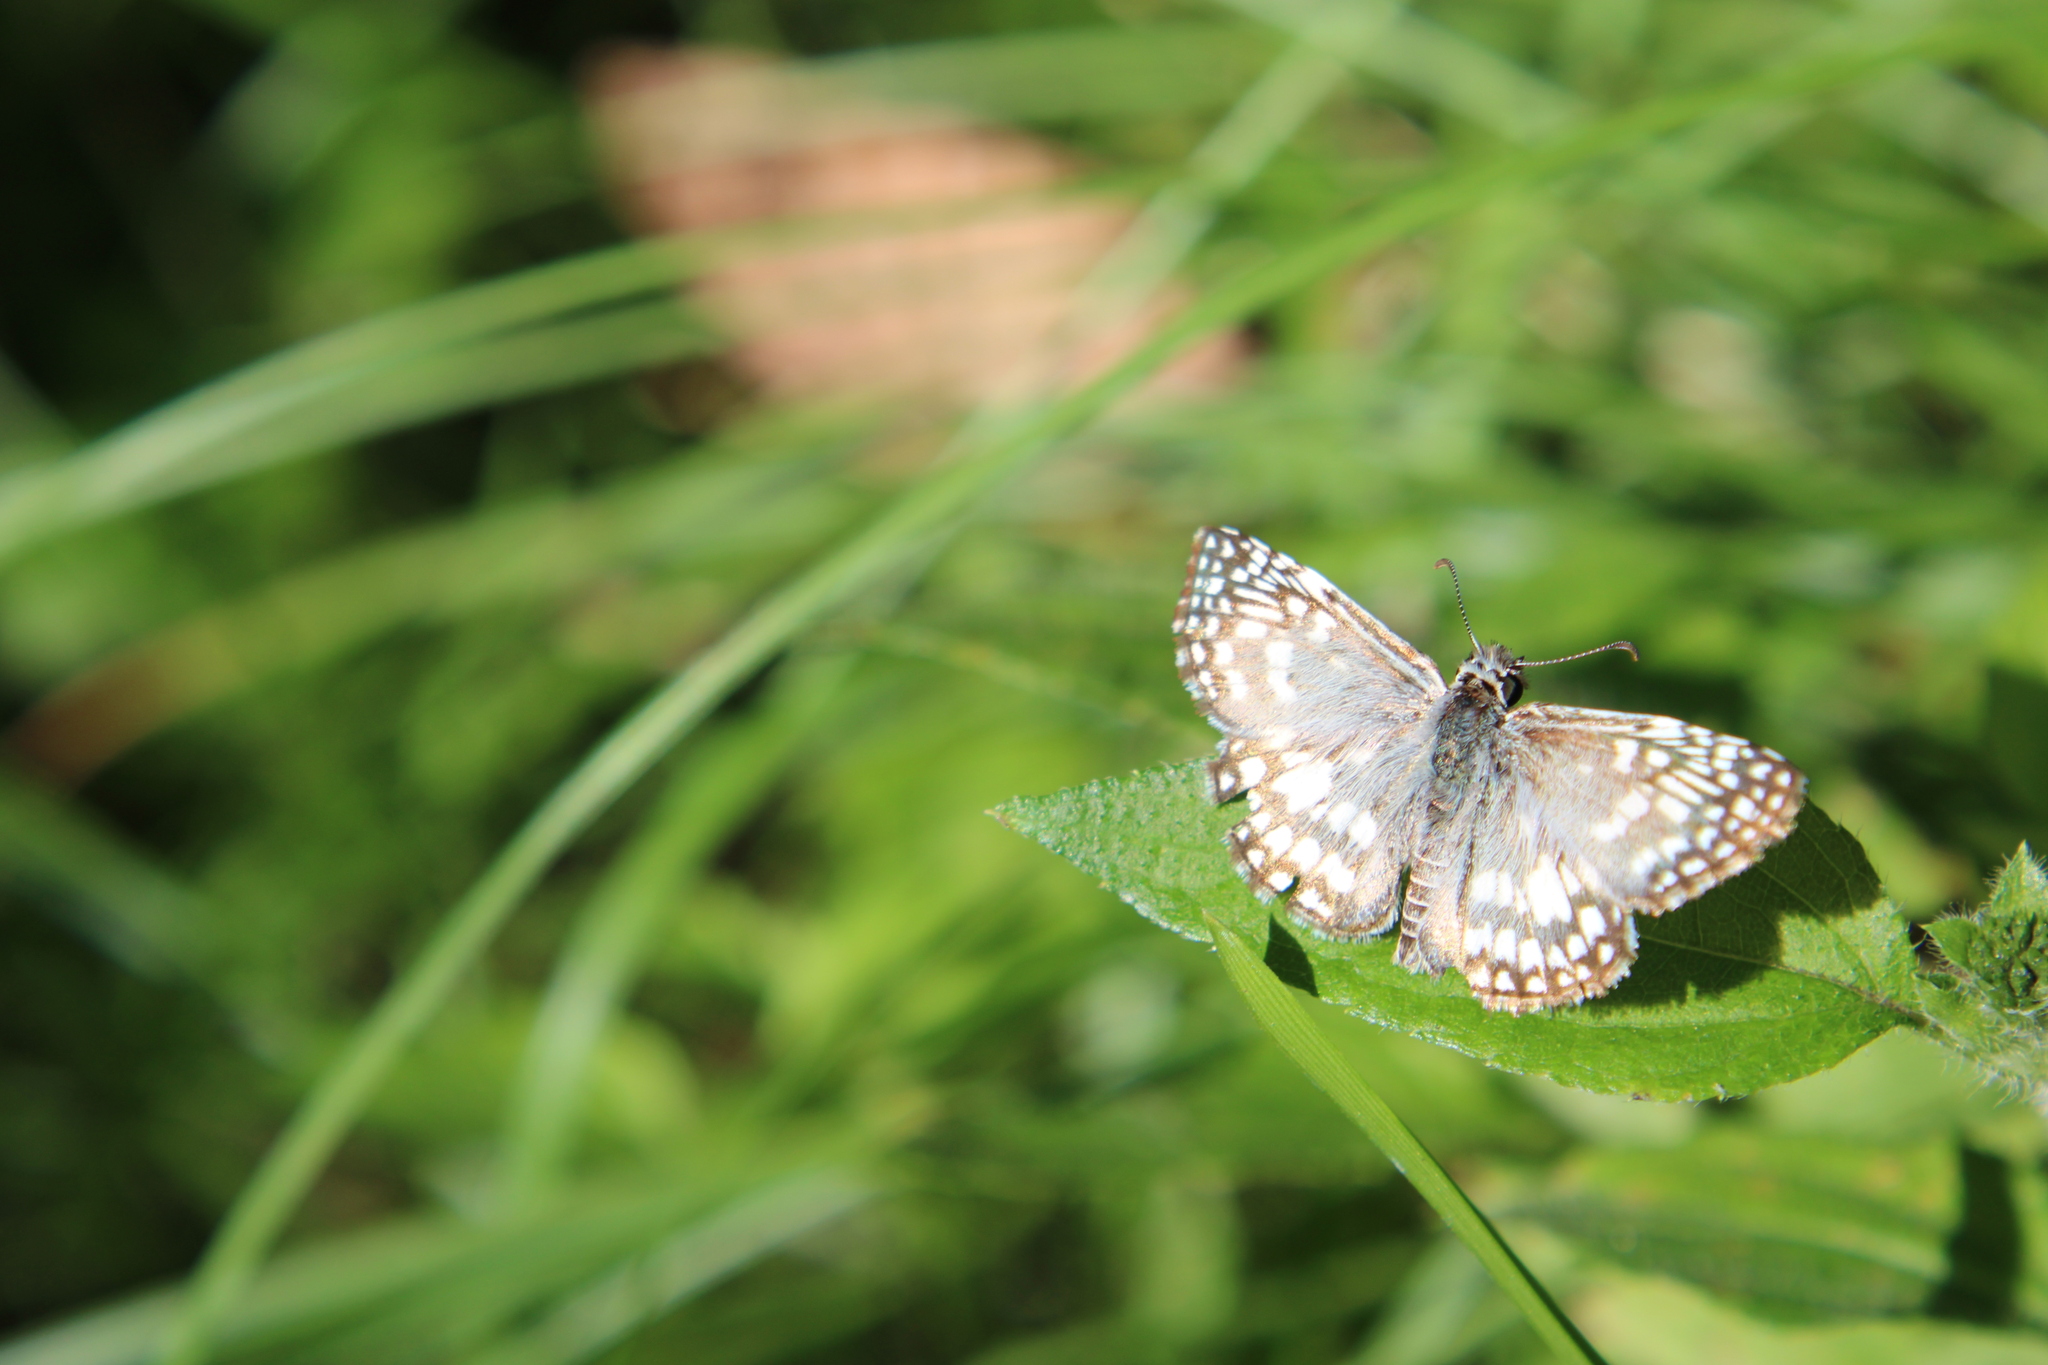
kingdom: Animalia
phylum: Arthropoda
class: Insecta
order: Lepidoptera
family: Hesperiidae
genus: Pyrgus
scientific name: Pyrgus oileus
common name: Tropical checkered-skipper
